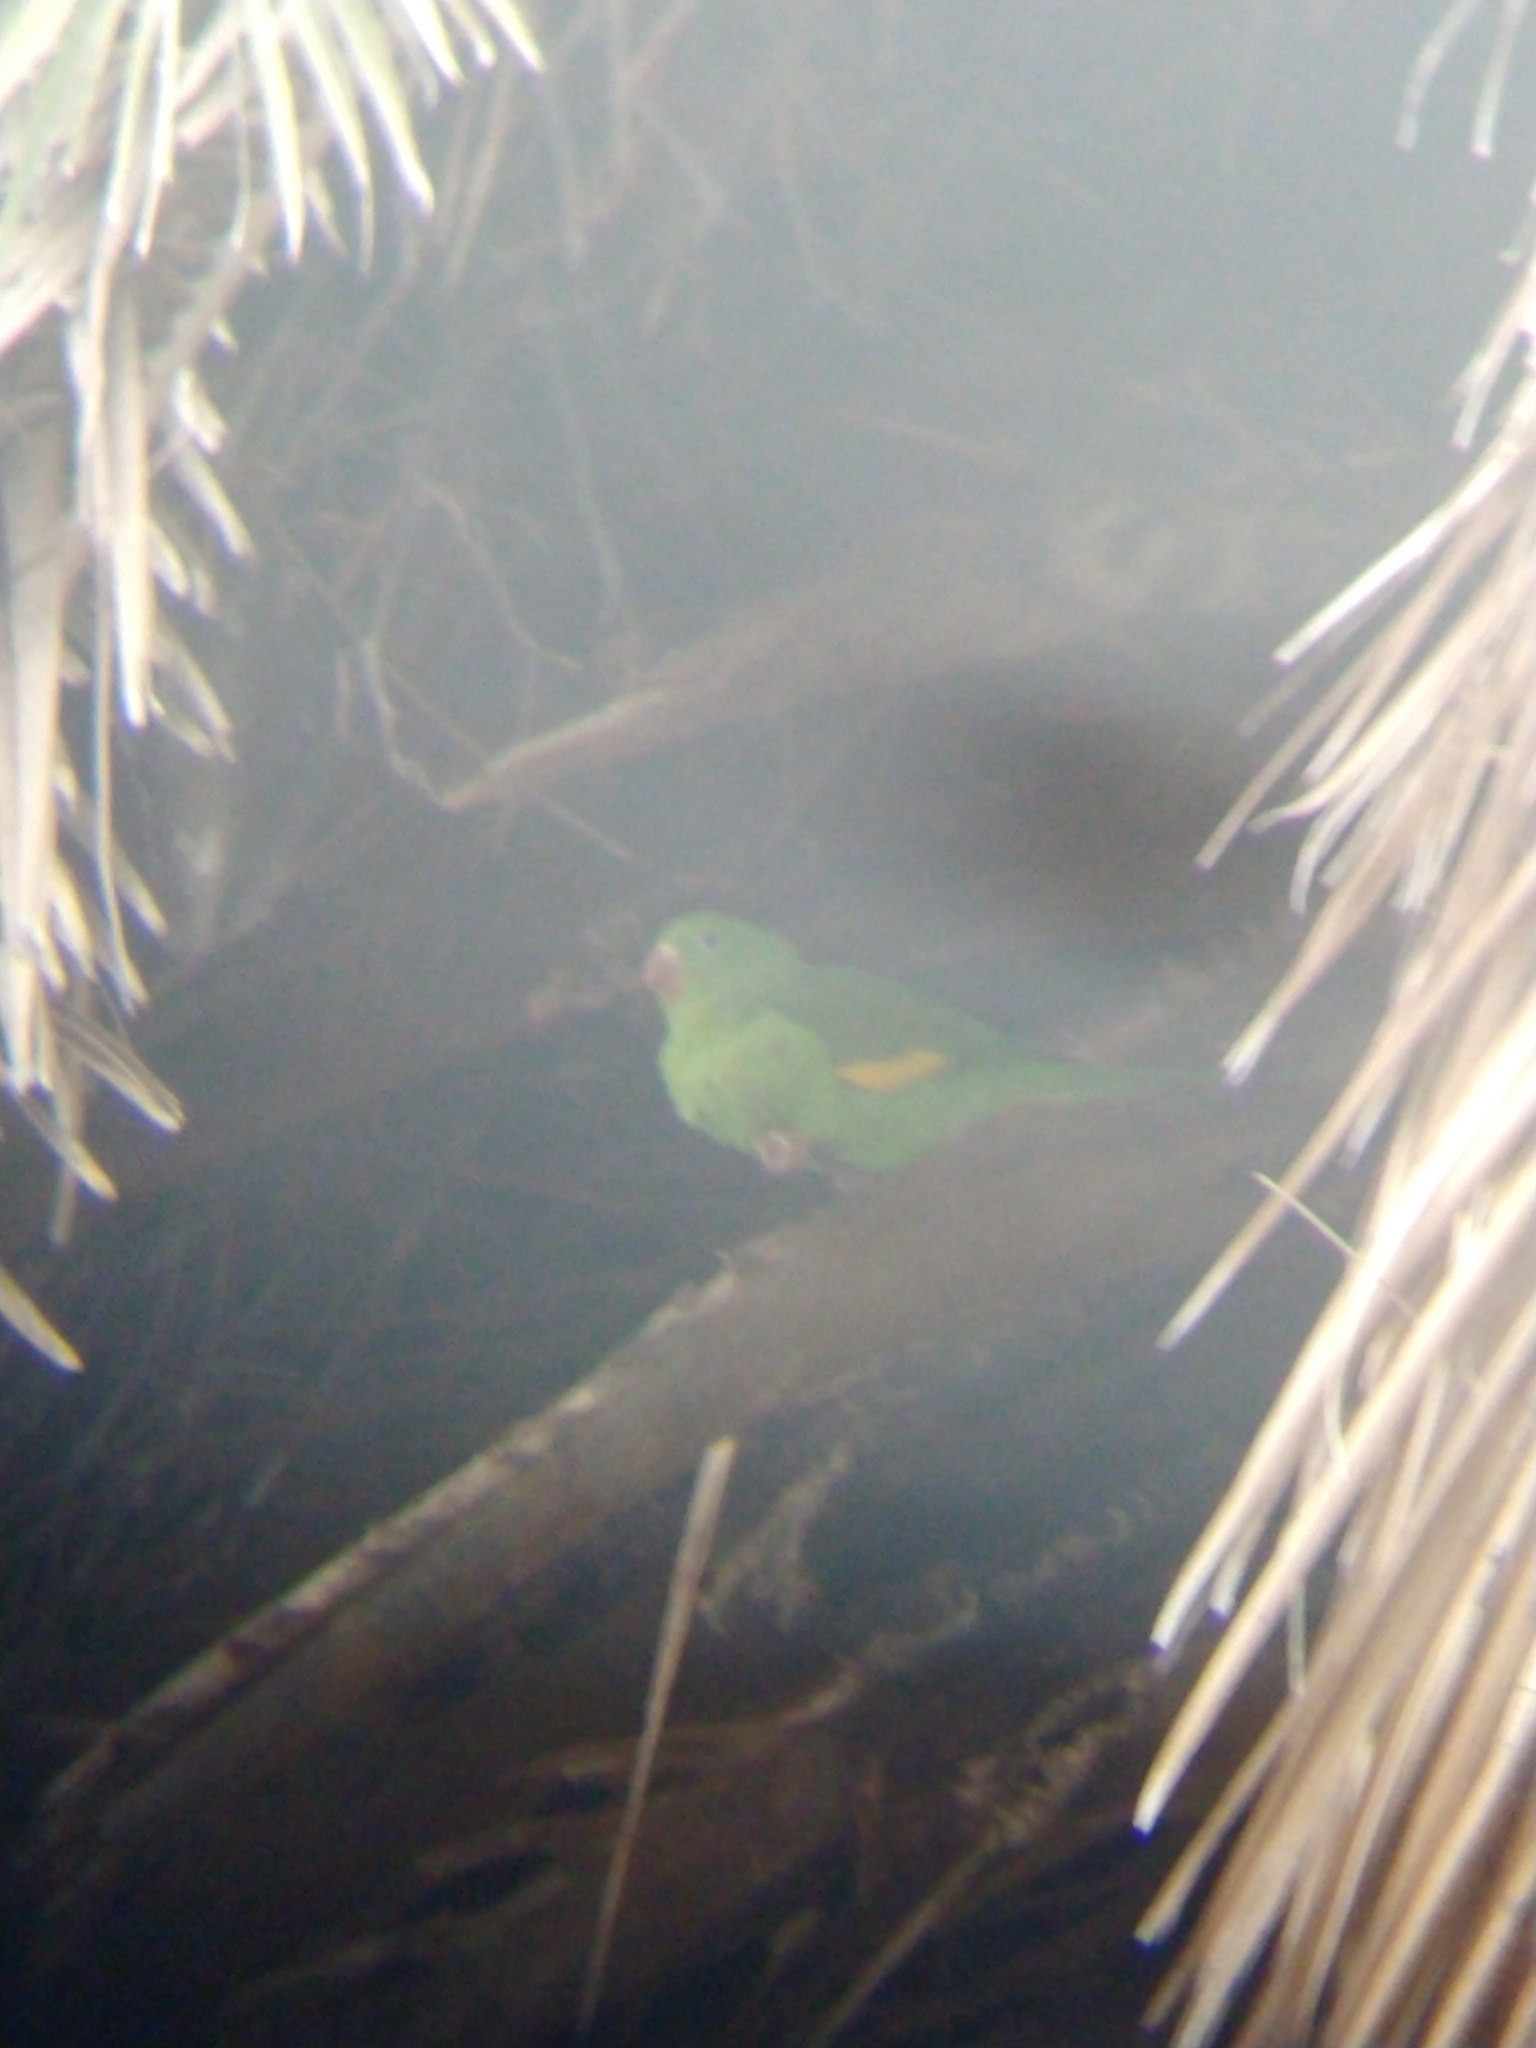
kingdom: Animalia
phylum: Chordata
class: Aves
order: Psittaciformes
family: Psittacidae
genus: Brotogeris
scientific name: Brotogeris chiriri
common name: Yellow-chevroned parakeet
